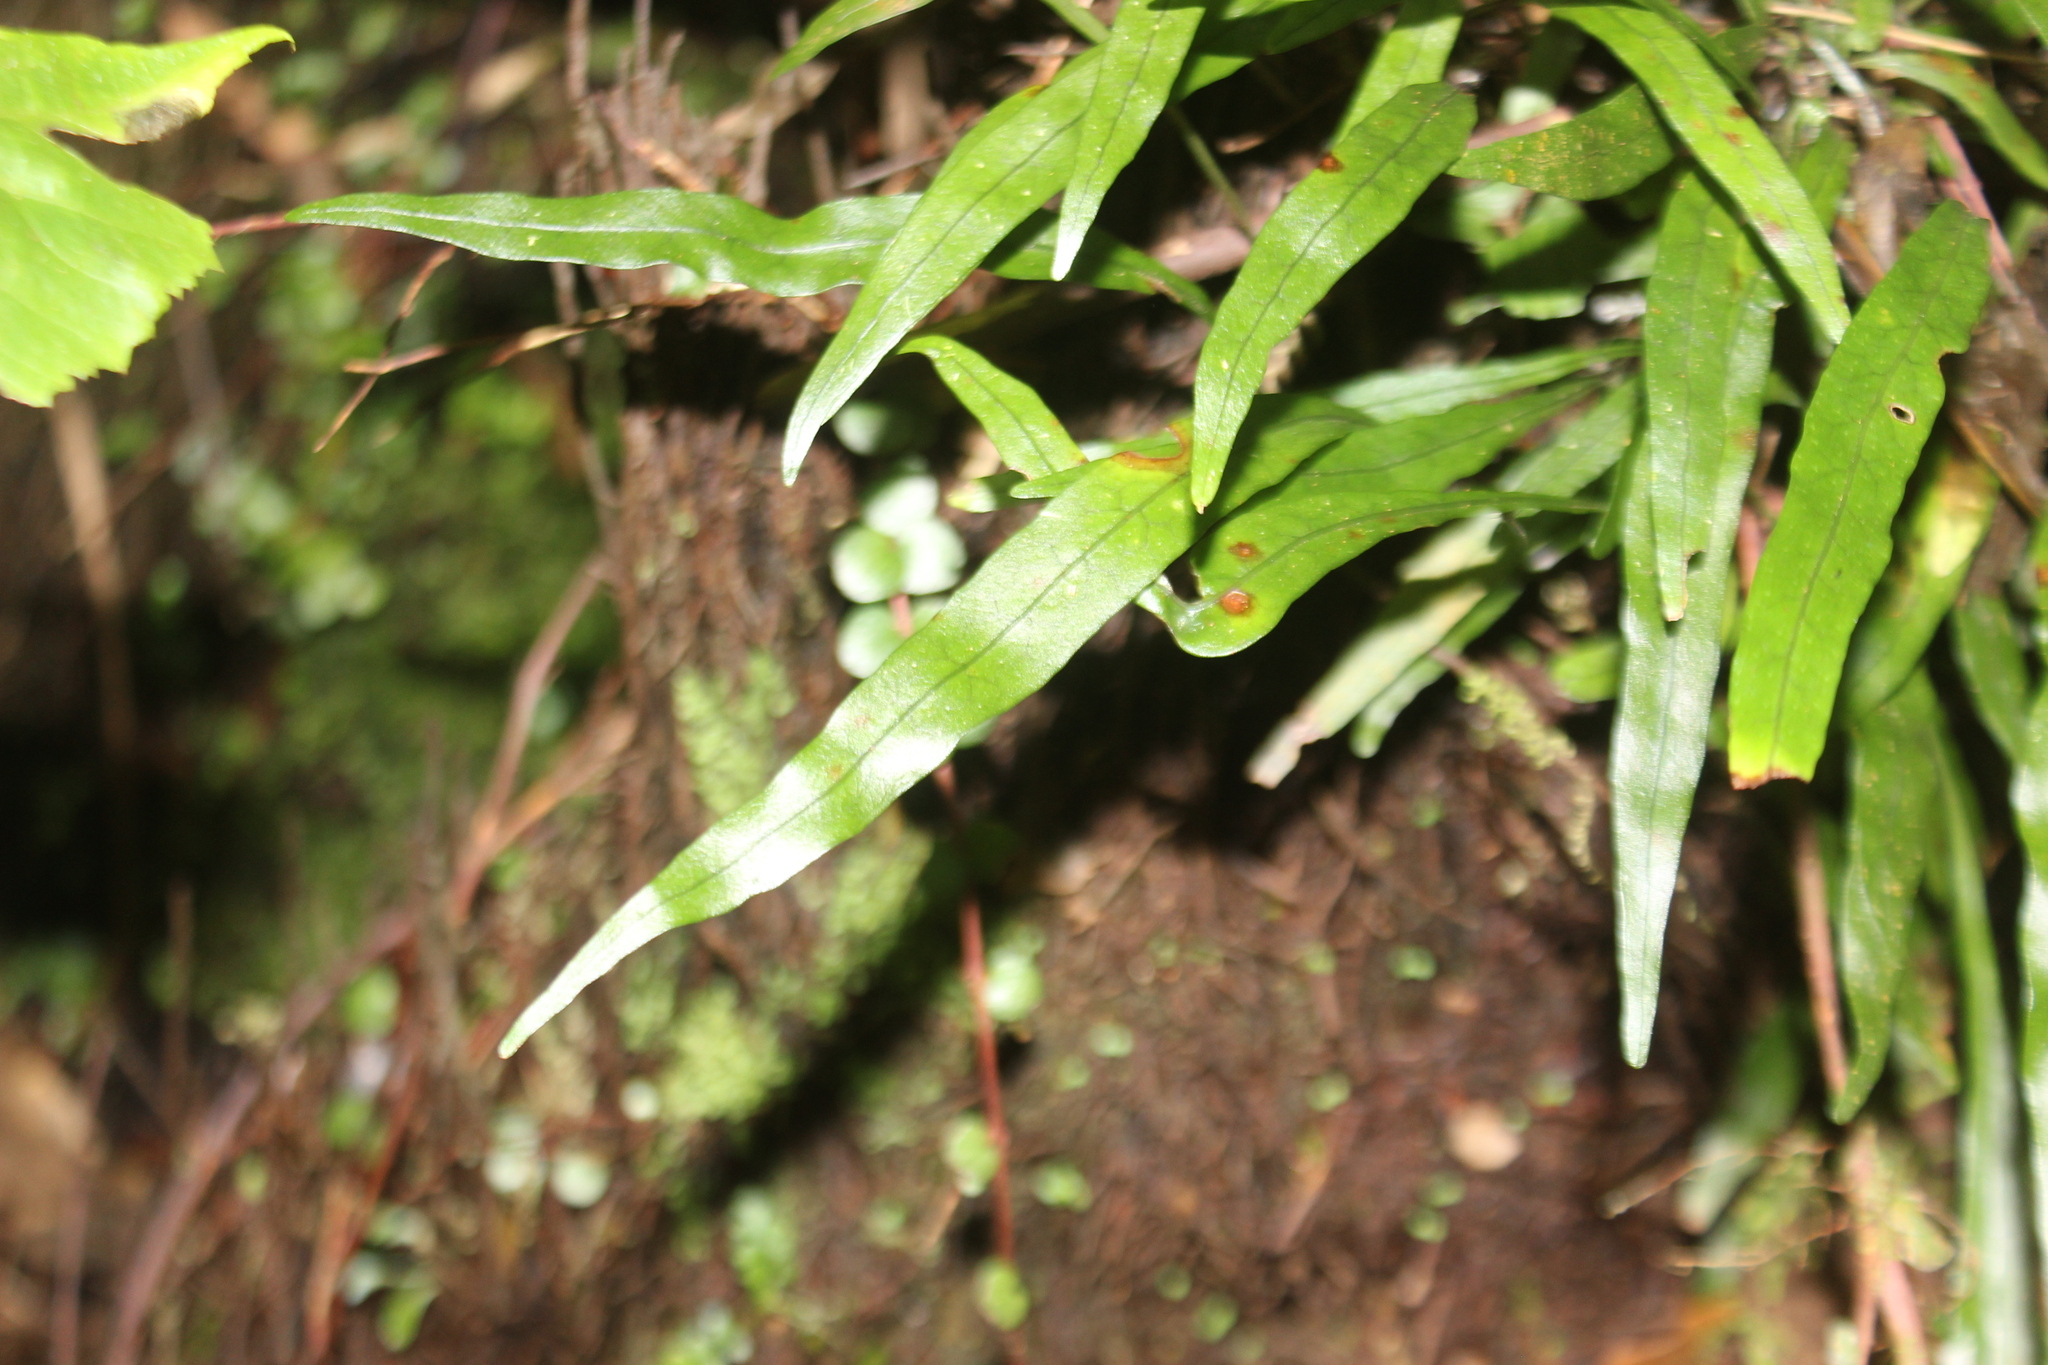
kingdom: Plantae
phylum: Tracheophyta
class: Polypodiopsida
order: Polypodiales
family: Polypodiaceae
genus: Lecanopteris
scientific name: Lecanopteris scandens
